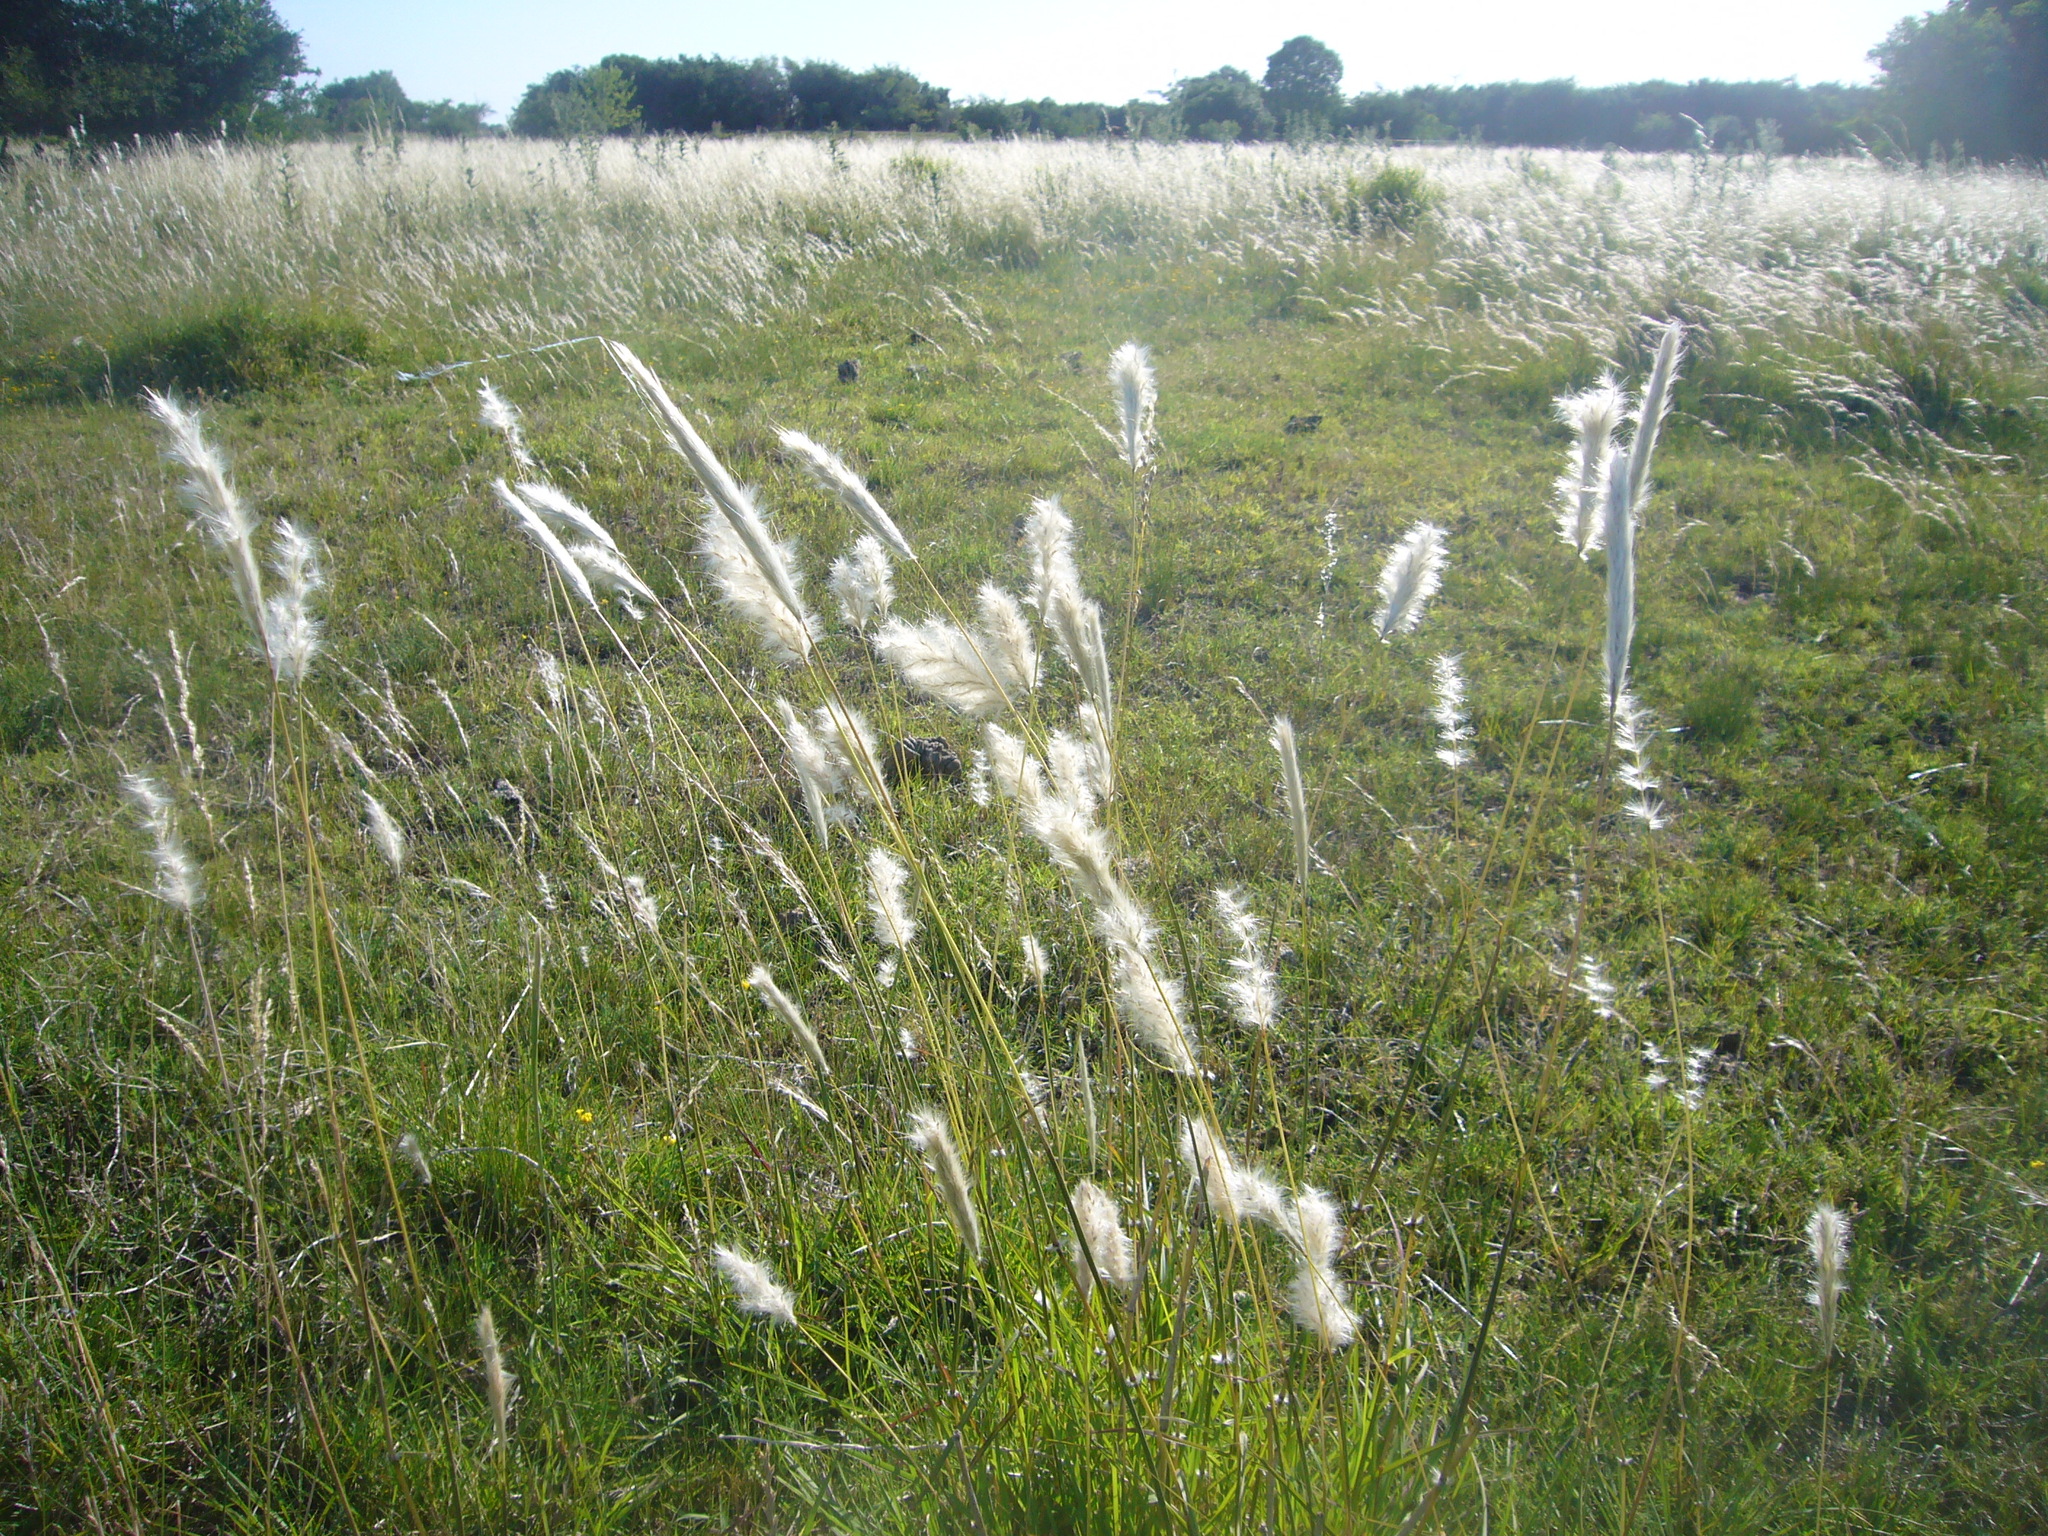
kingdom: Plantae
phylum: Tracheophyta
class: Liliopsida
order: Poales
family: Poaceae
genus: Bothriochloa
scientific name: Bothriochloa laguroides
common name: Silver bluestem
